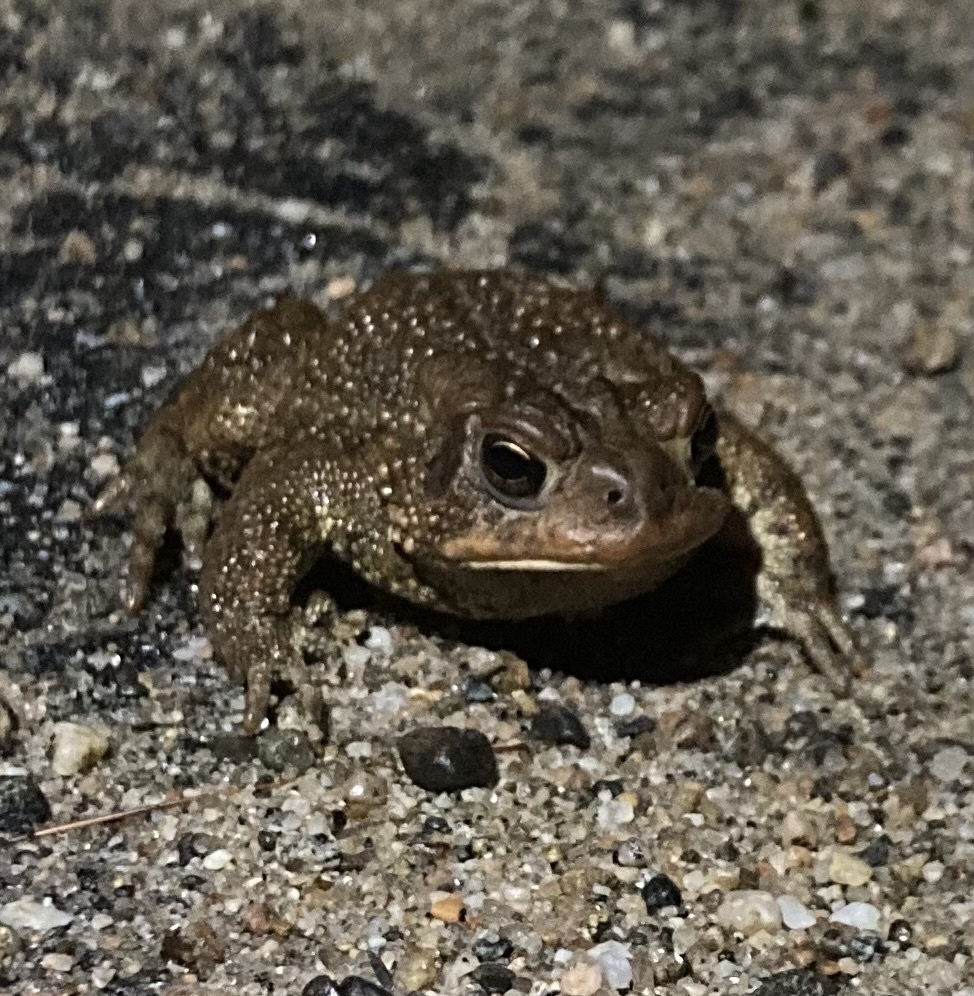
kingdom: Animalia
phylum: Chordata
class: Amphibia
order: Anura
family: Bufonidae
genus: Anaxyrus
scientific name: Anaxyrus americanus
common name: American toad
